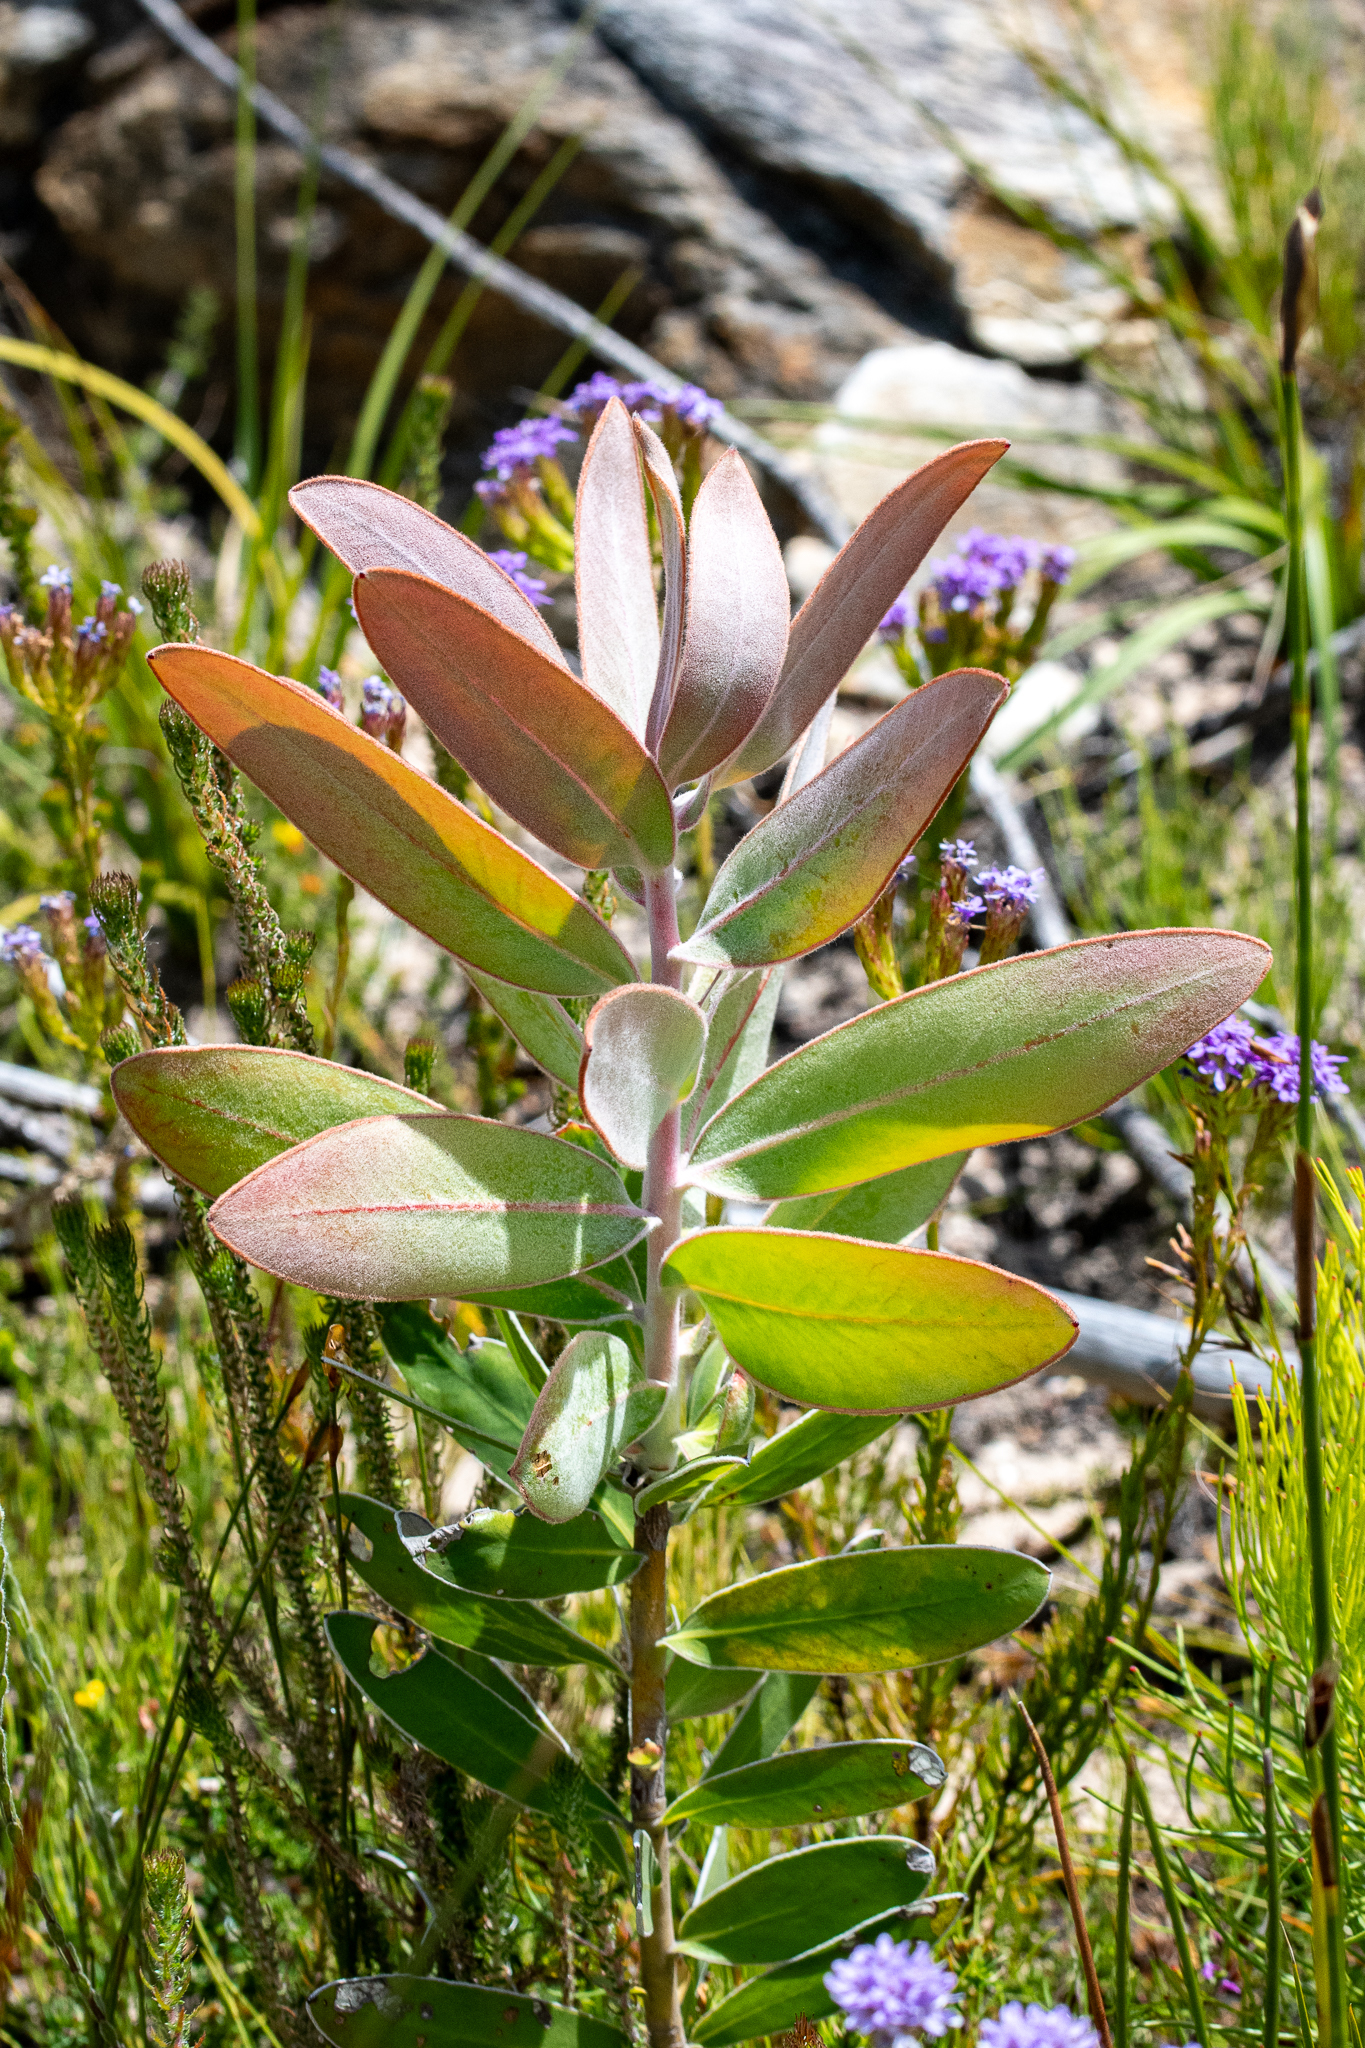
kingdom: Plantae
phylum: Tracheophyta
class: Magnoliopsida
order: Proteales
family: Proteaceae
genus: Protea
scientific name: Protea compacta
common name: Bot river protea
